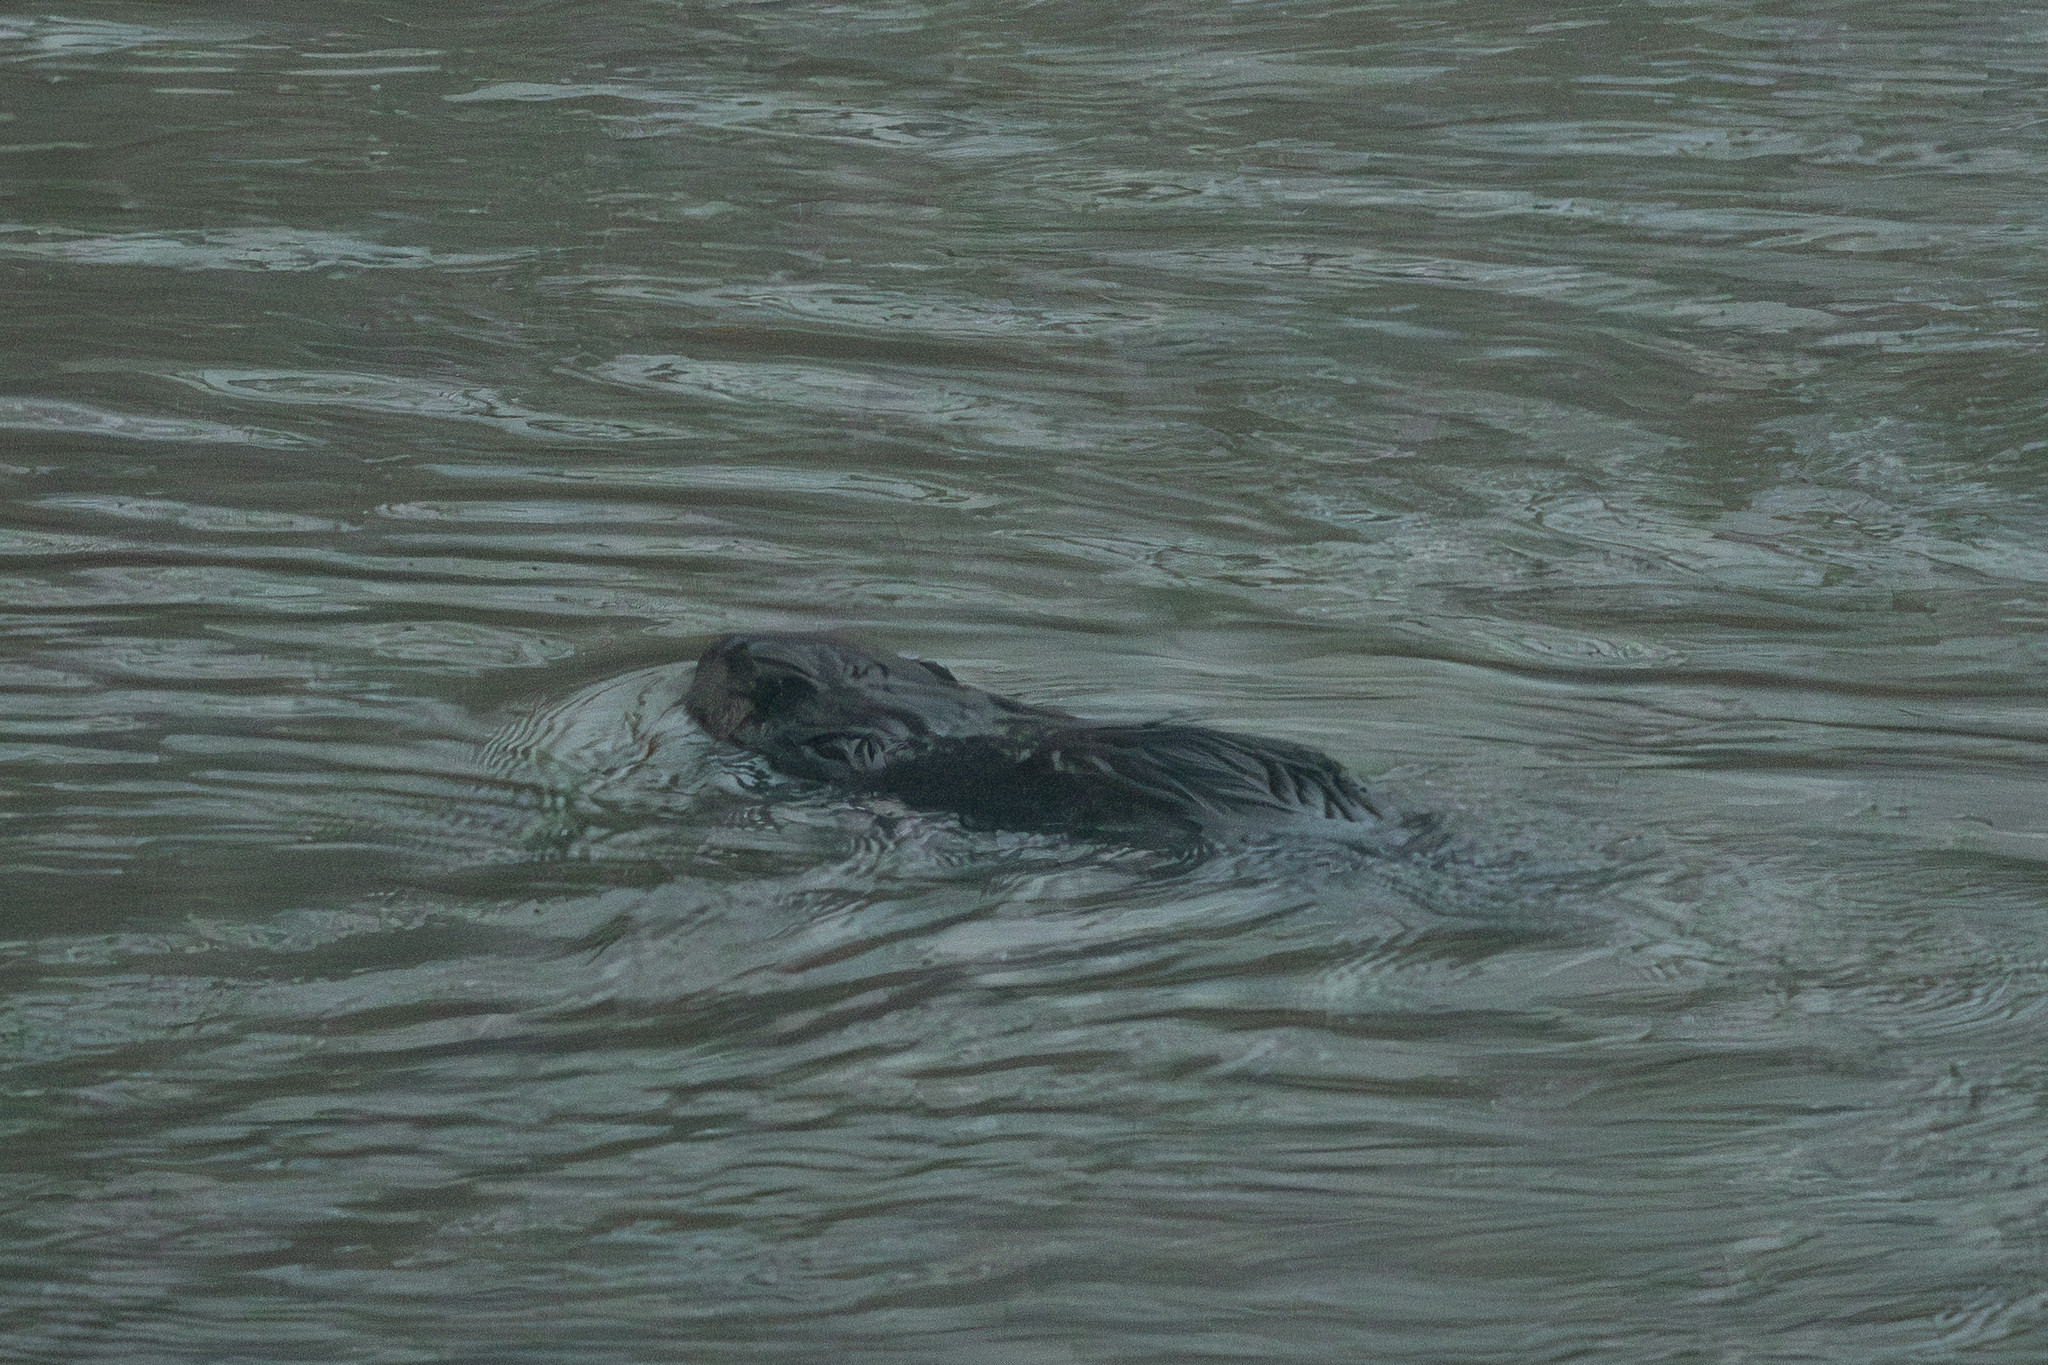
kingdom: Animalia
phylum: Chordata
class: Mammalia
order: Rodentia
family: Castoridae
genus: Castor
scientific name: Castor canadensis
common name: American beaver
